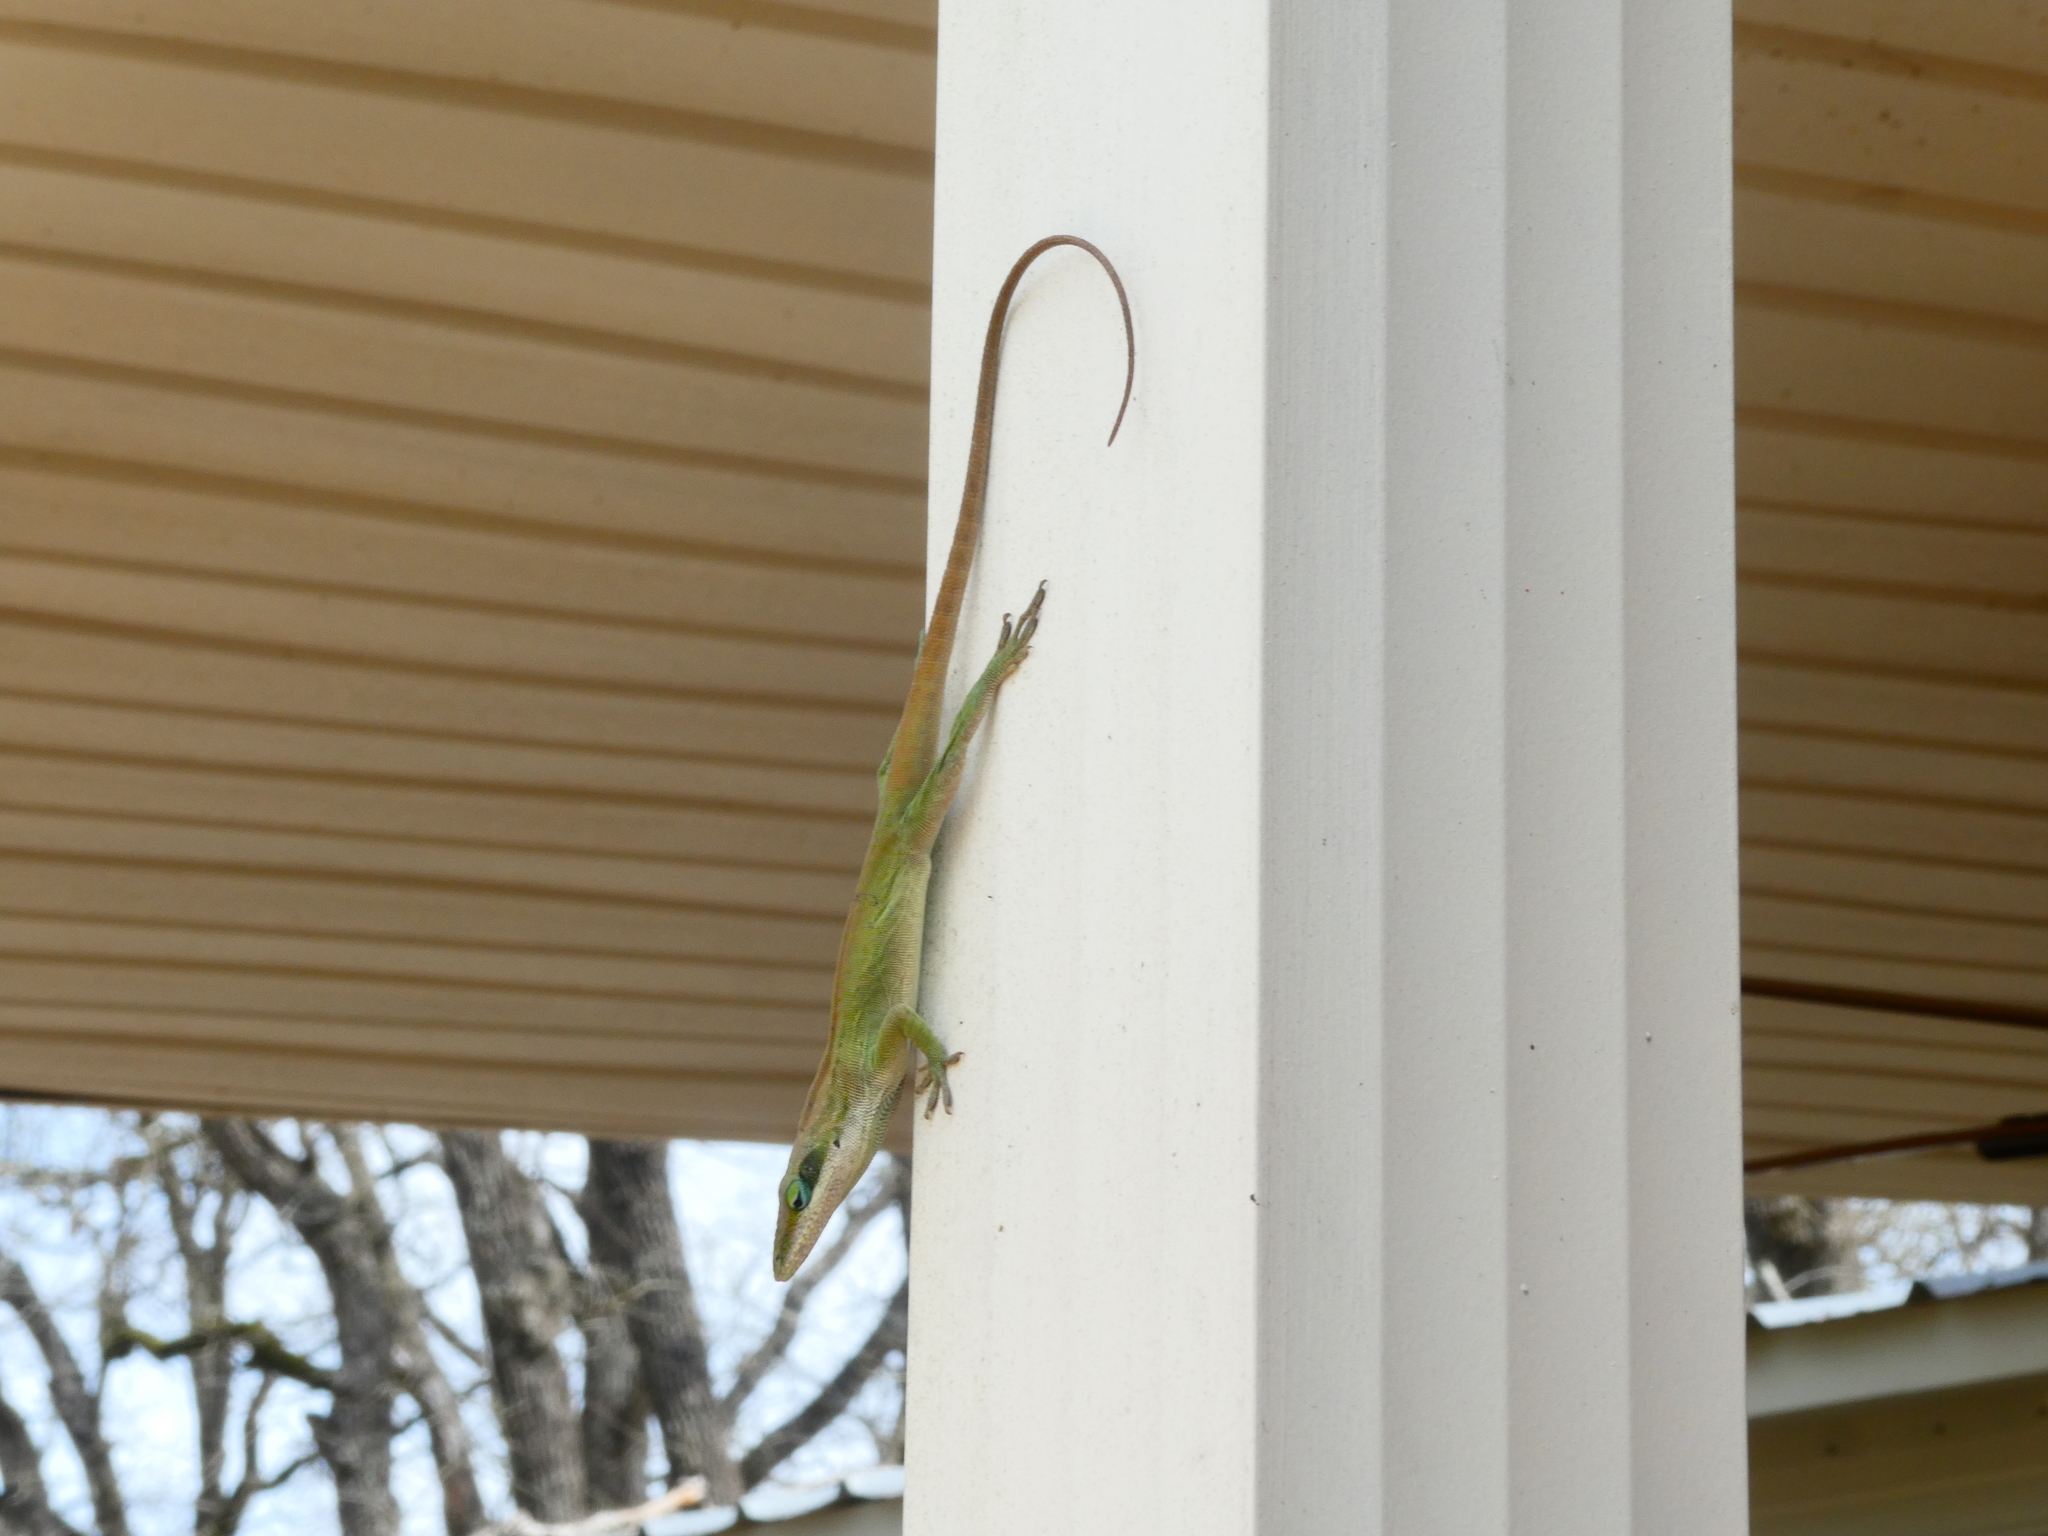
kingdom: Animalia
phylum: Chordata
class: Squamata
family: Dactyloidae
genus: Anolis
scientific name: Anolis carolinensis
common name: Green anole
